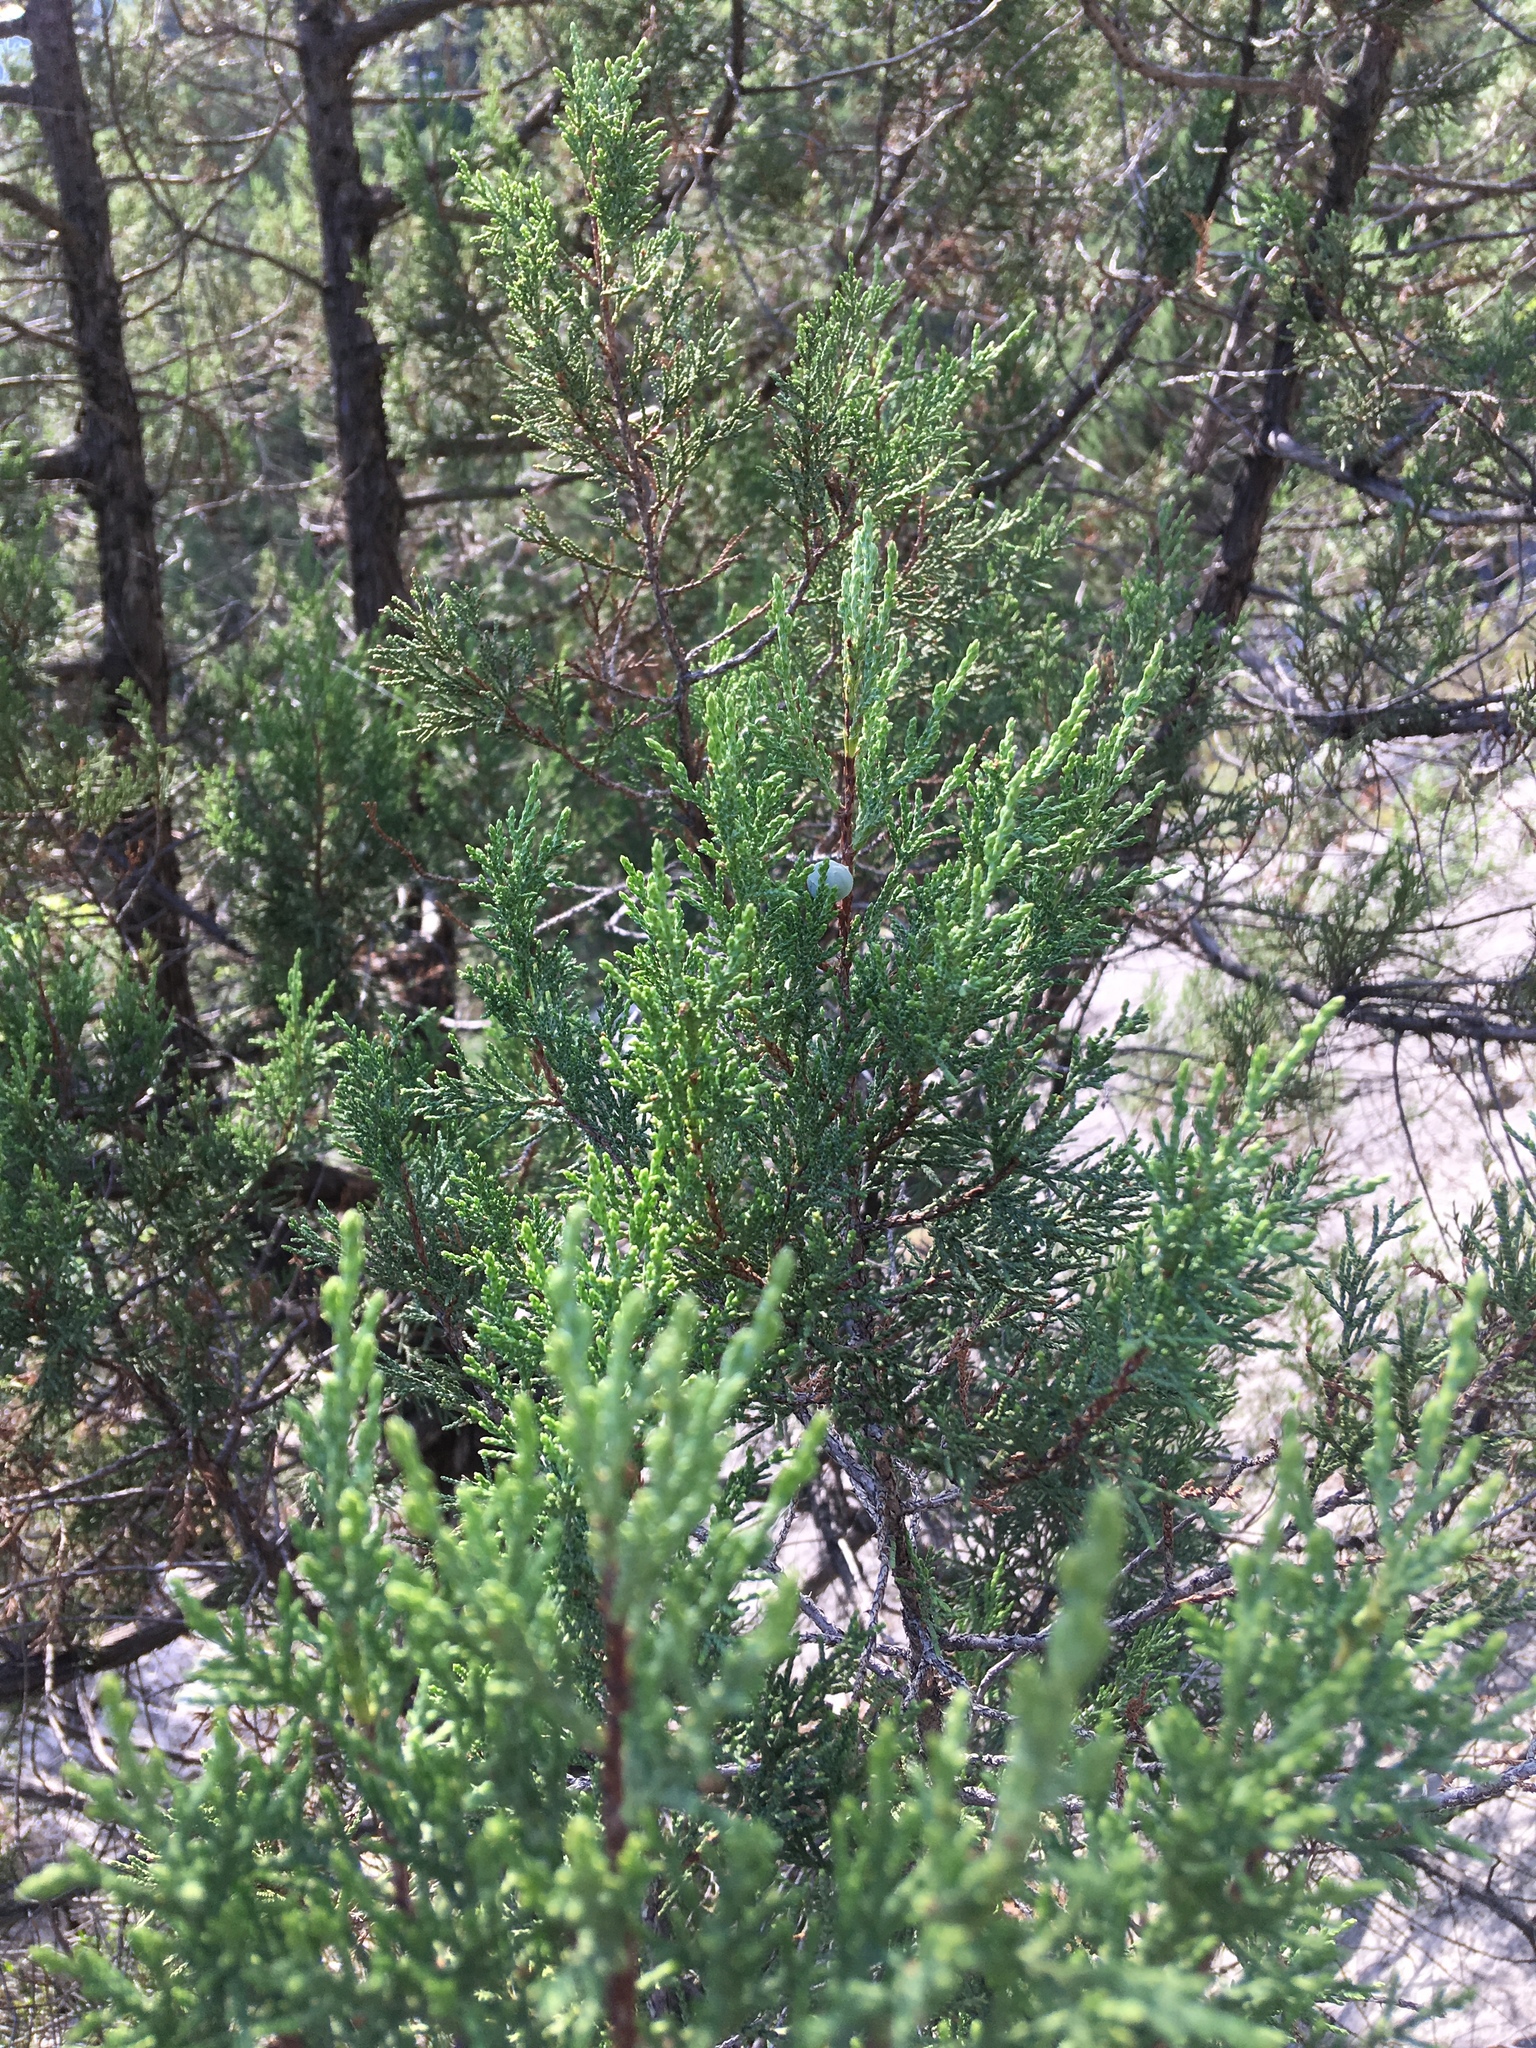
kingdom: Plantae
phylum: Tracheophyta
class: Pinopsida
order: Pinales
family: Cupressaceae
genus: Juniperus
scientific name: Juniperus excelsa
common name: Crimean juniper
